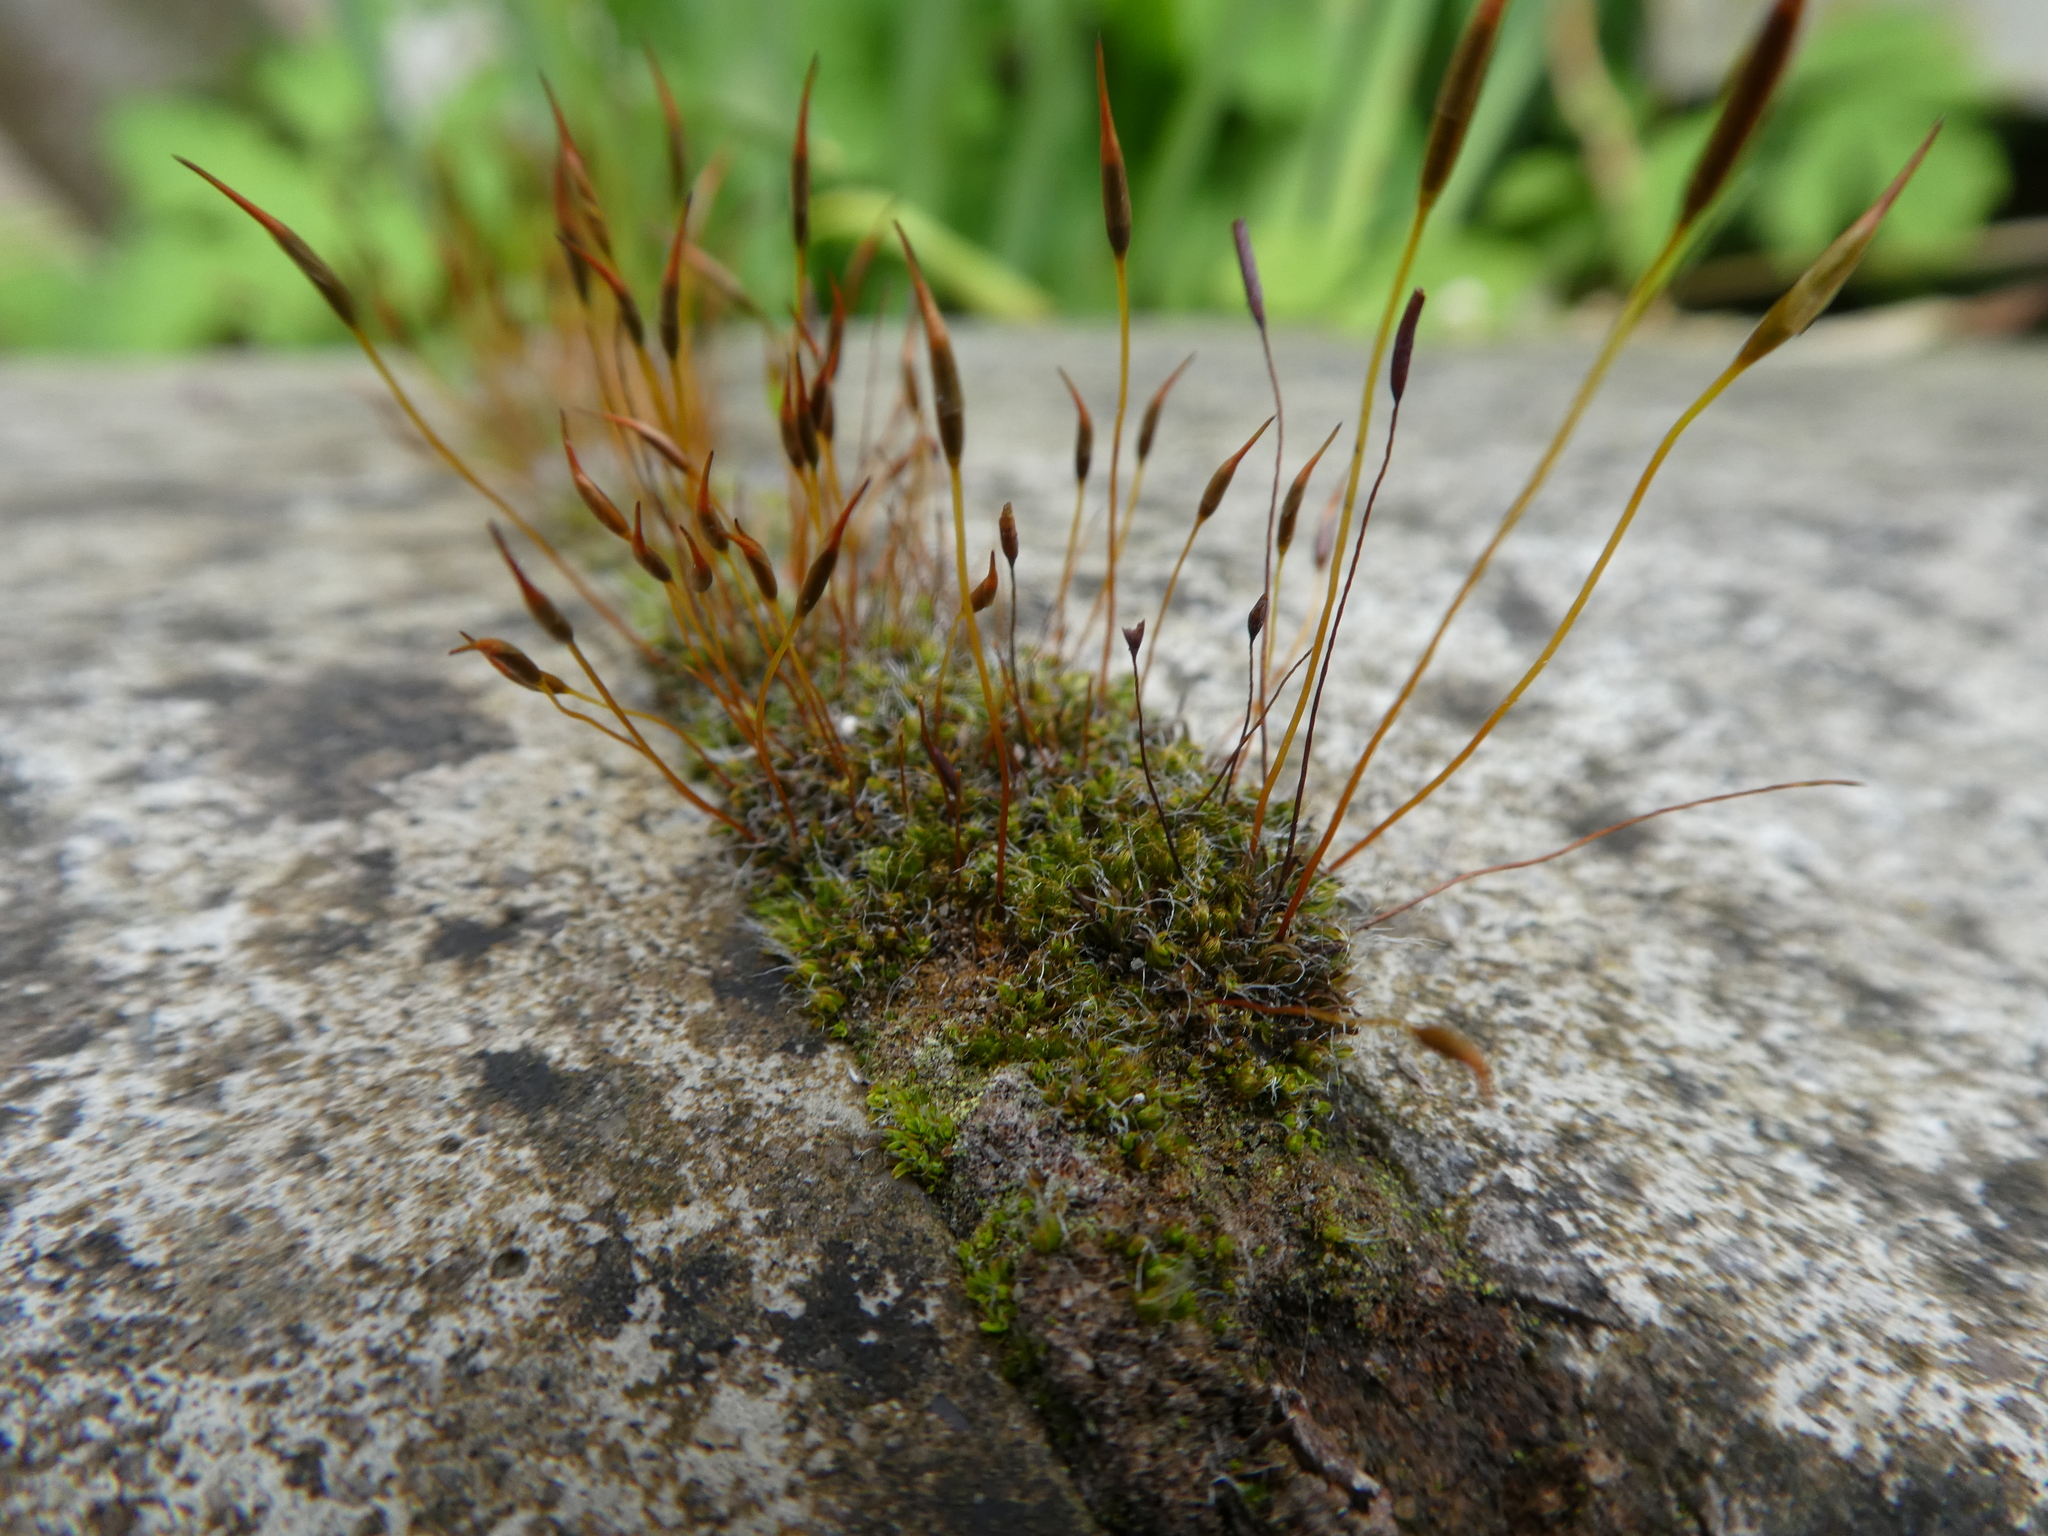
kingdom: Plantae
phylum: Bryophyta
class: Bryopsida
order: Pottiales
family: Pottiaceae
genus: Tortula
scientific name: Tortula muralis
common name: Wall screw-moss
